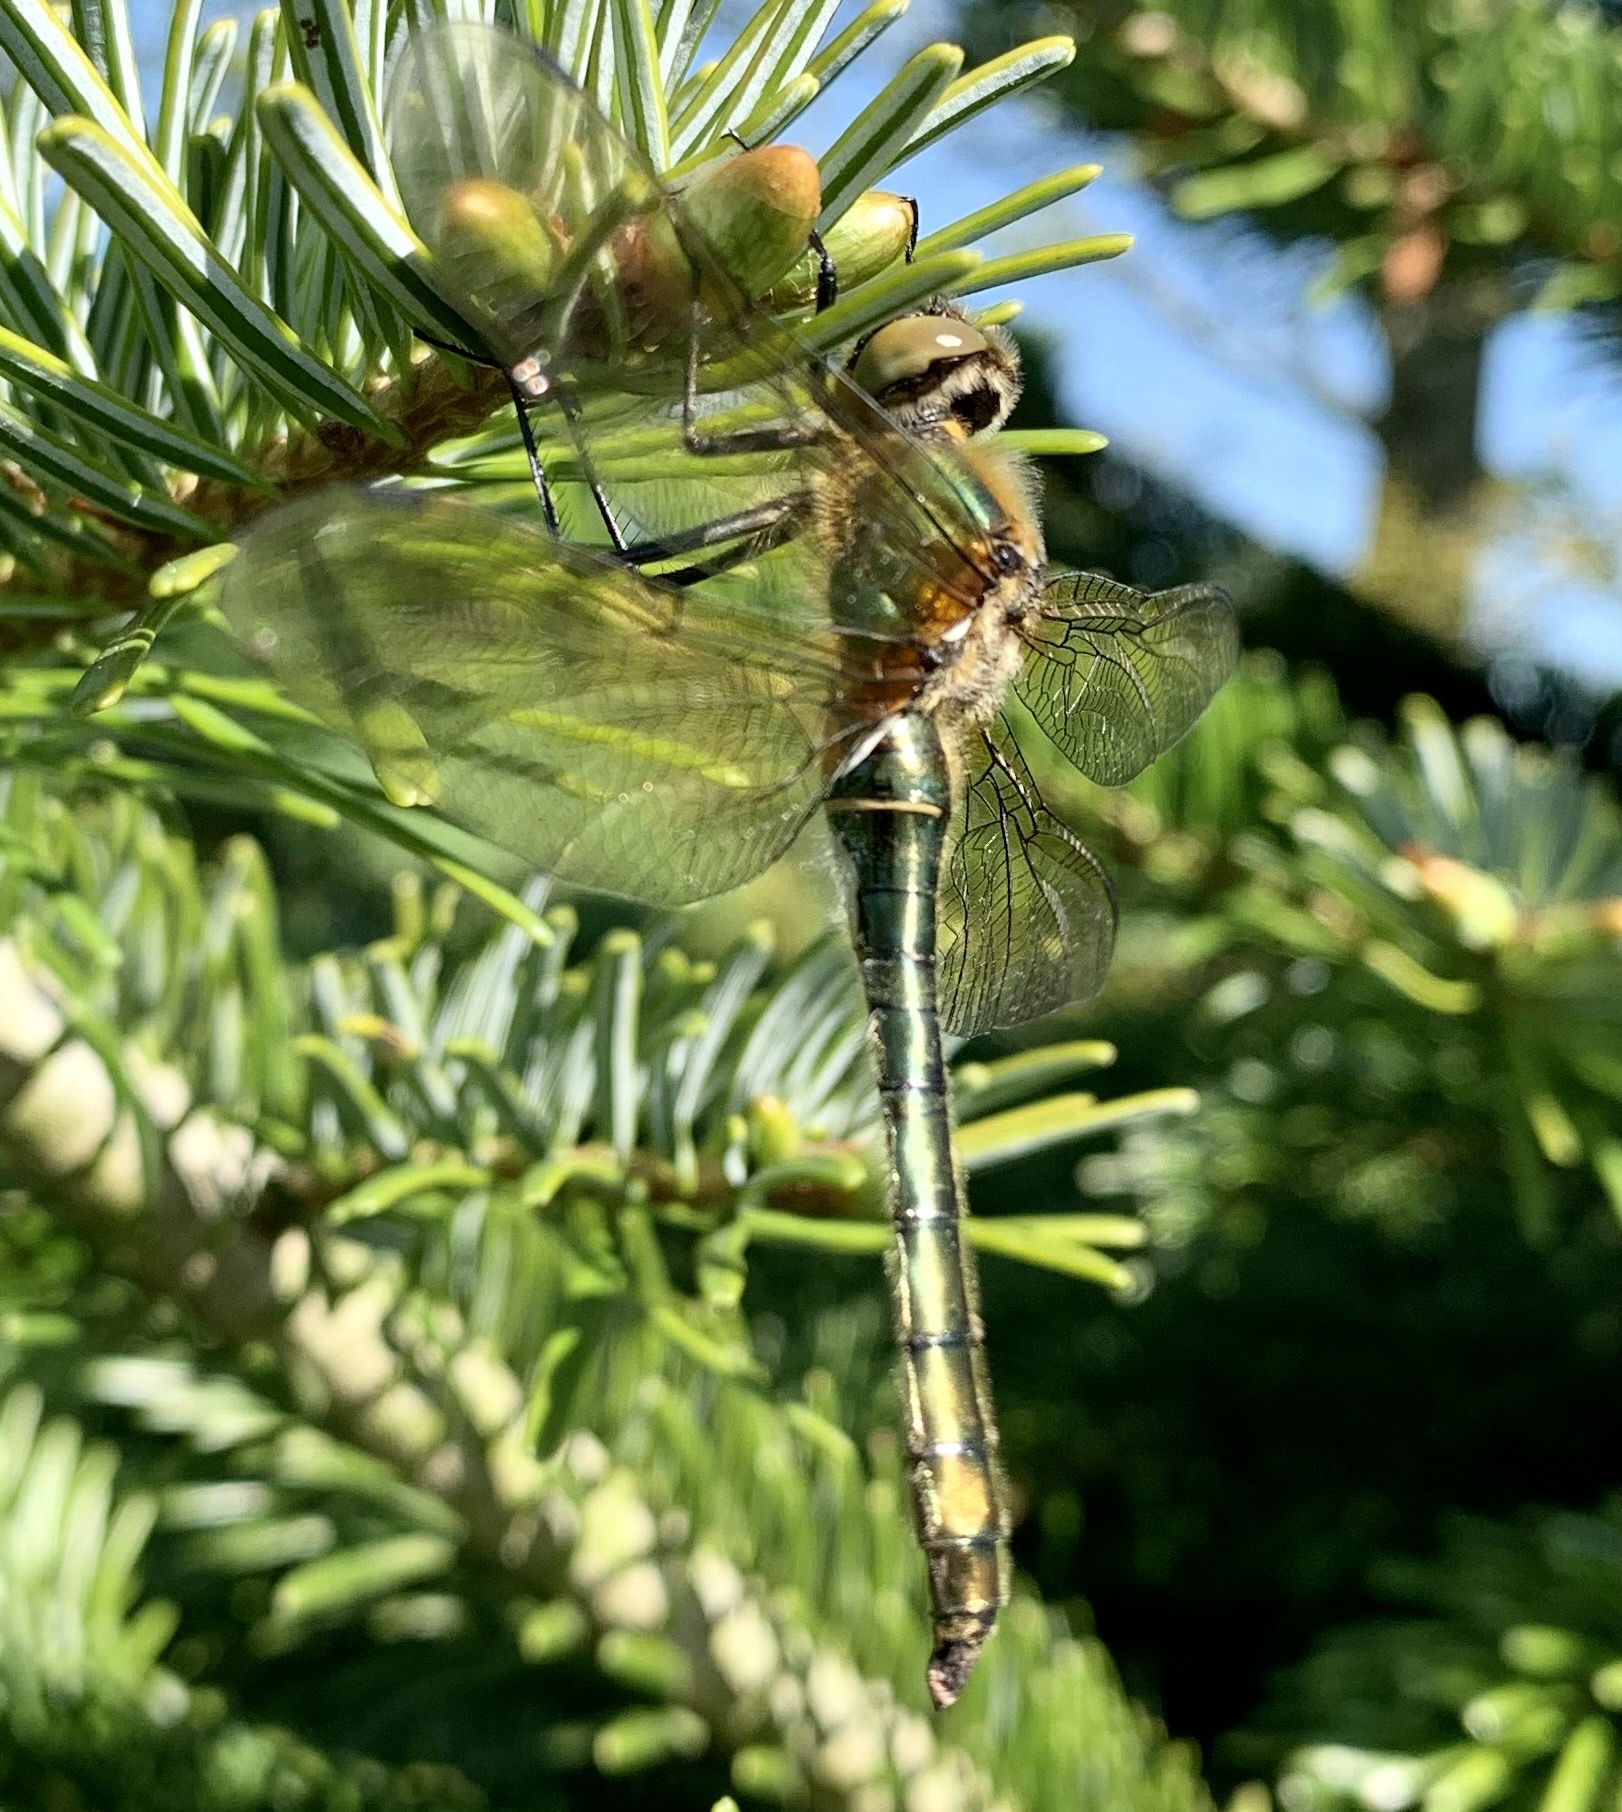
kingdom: Animalia
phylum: Arthropoda
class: Insecta
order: Odonata
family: Corduliidae
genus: Cordulia
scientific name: Cordulia aenea
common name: Downy emerald
